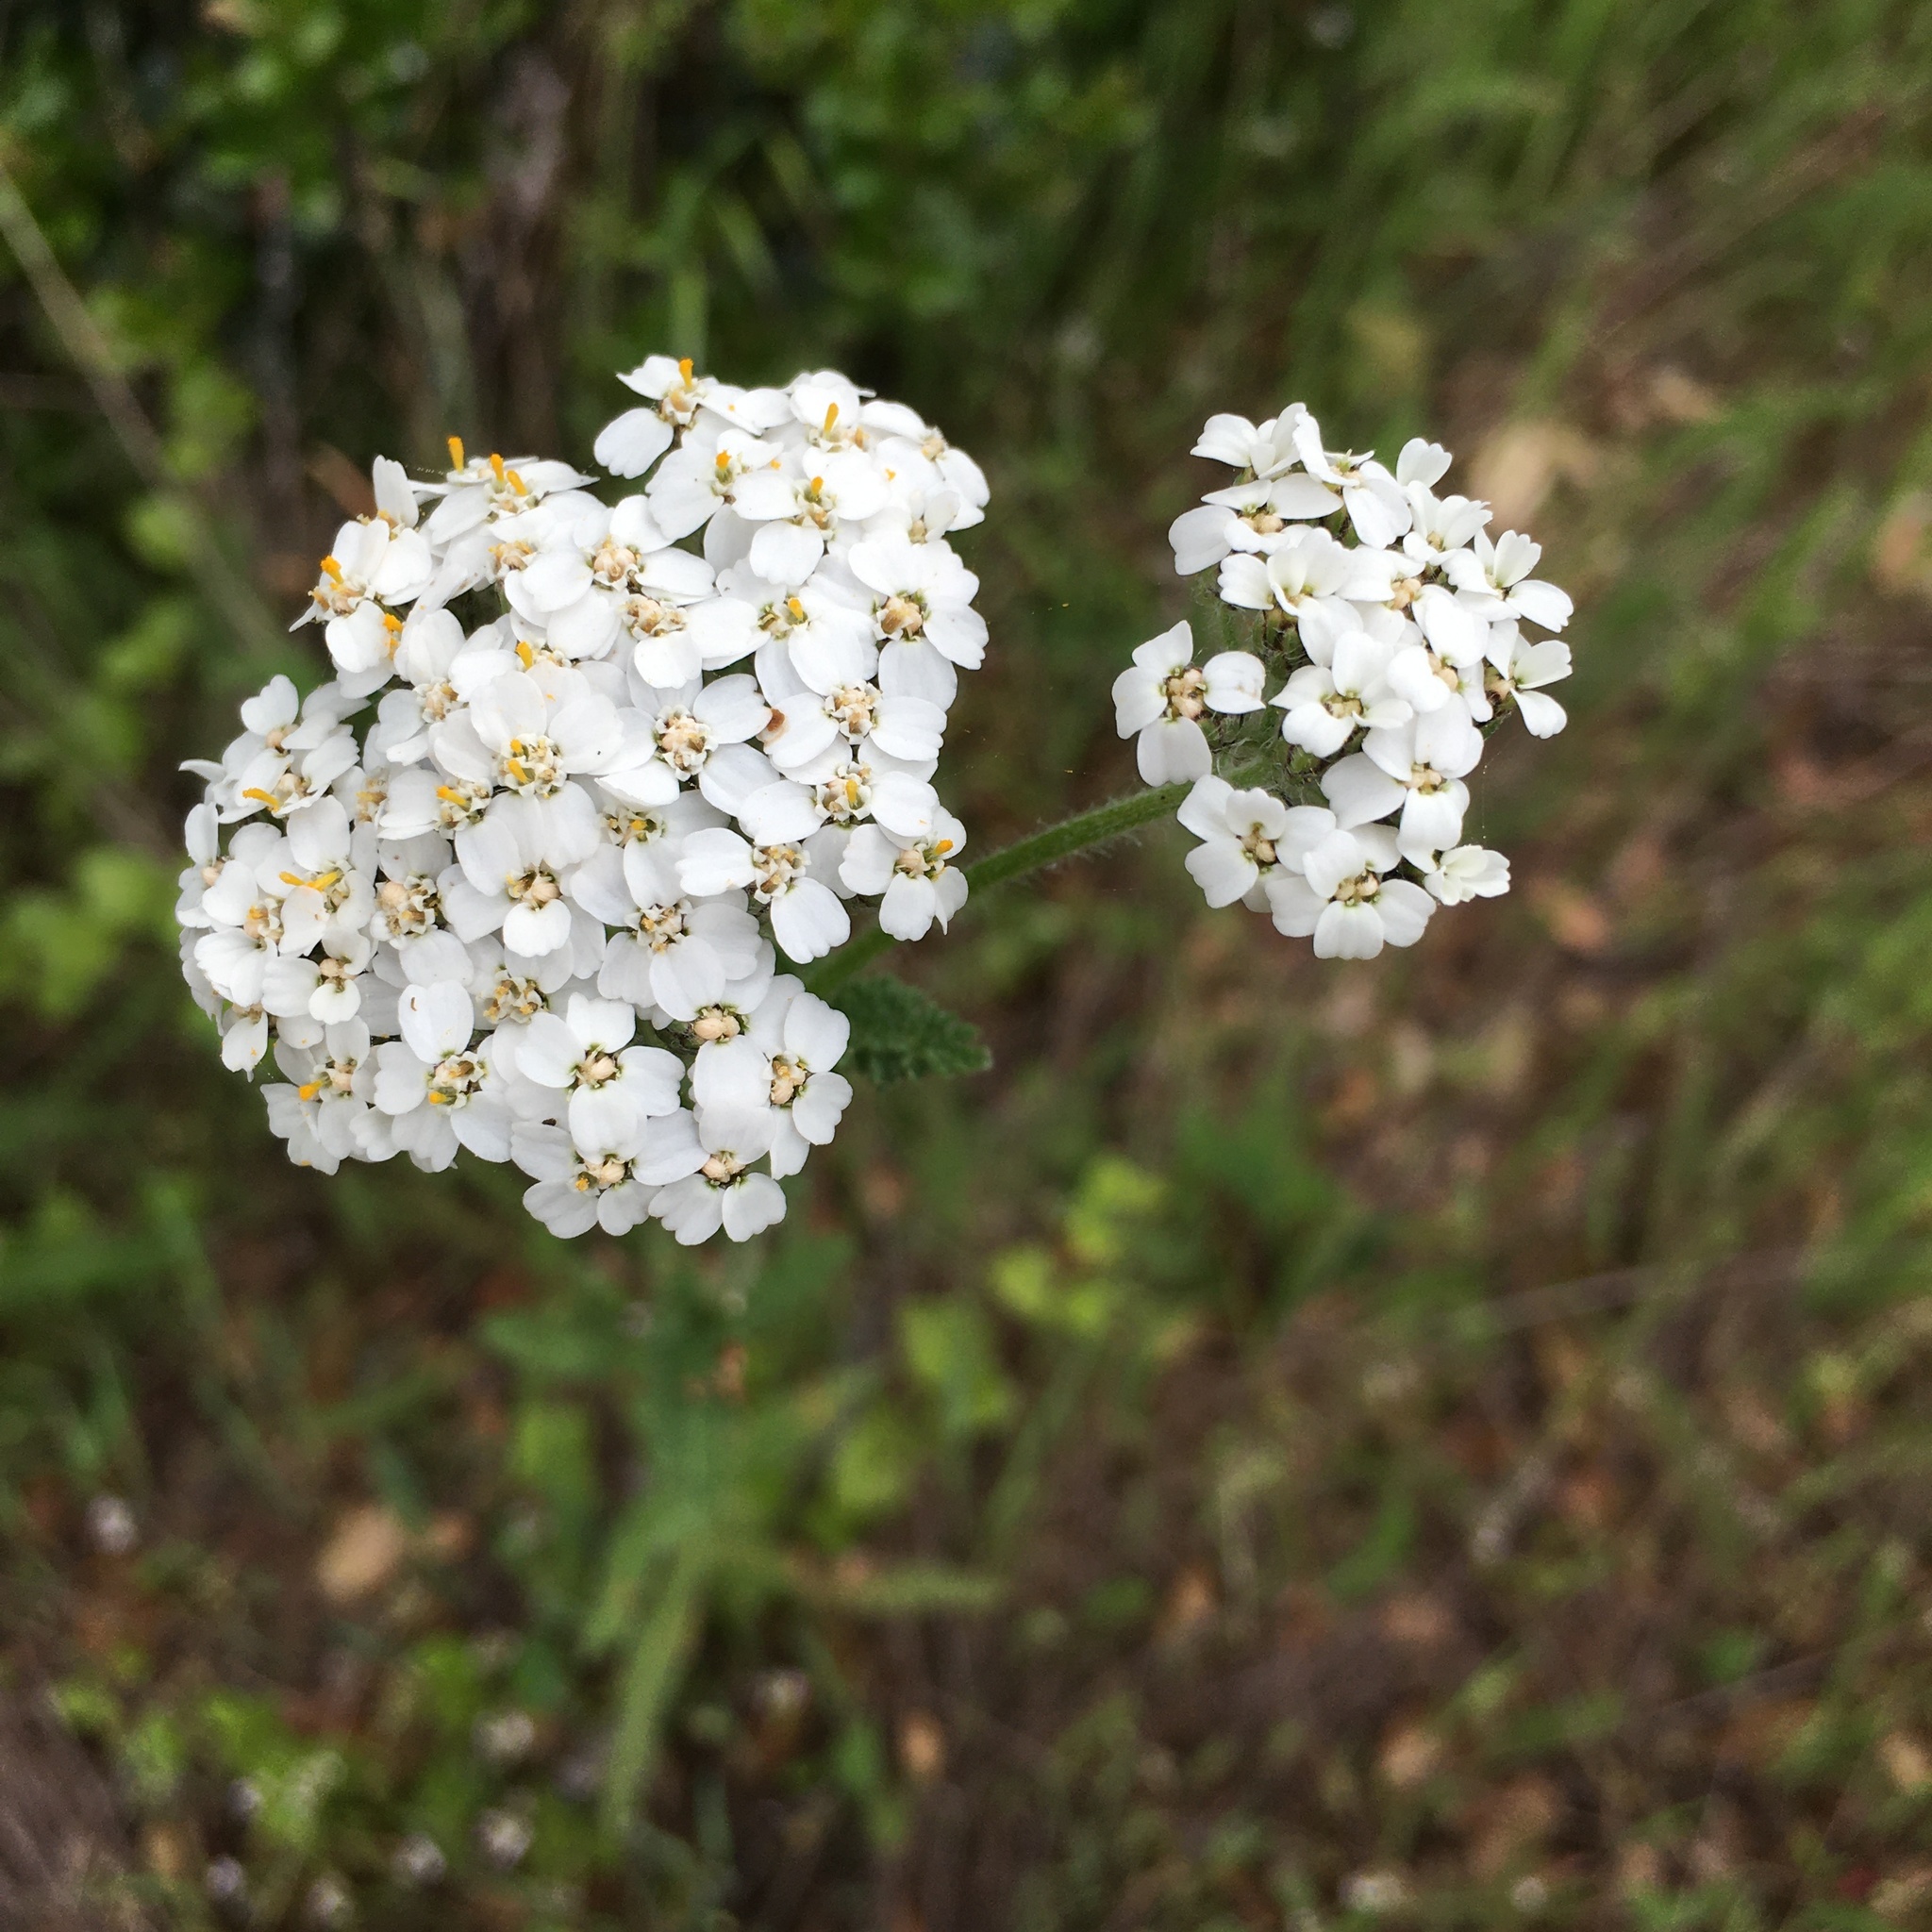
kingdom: Plantae
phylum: Tracheophyta
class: Magnoliopsida
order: Asterales
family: Asteraceae
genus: Achillea
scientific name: Achillea millefolium
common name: Yarrow
